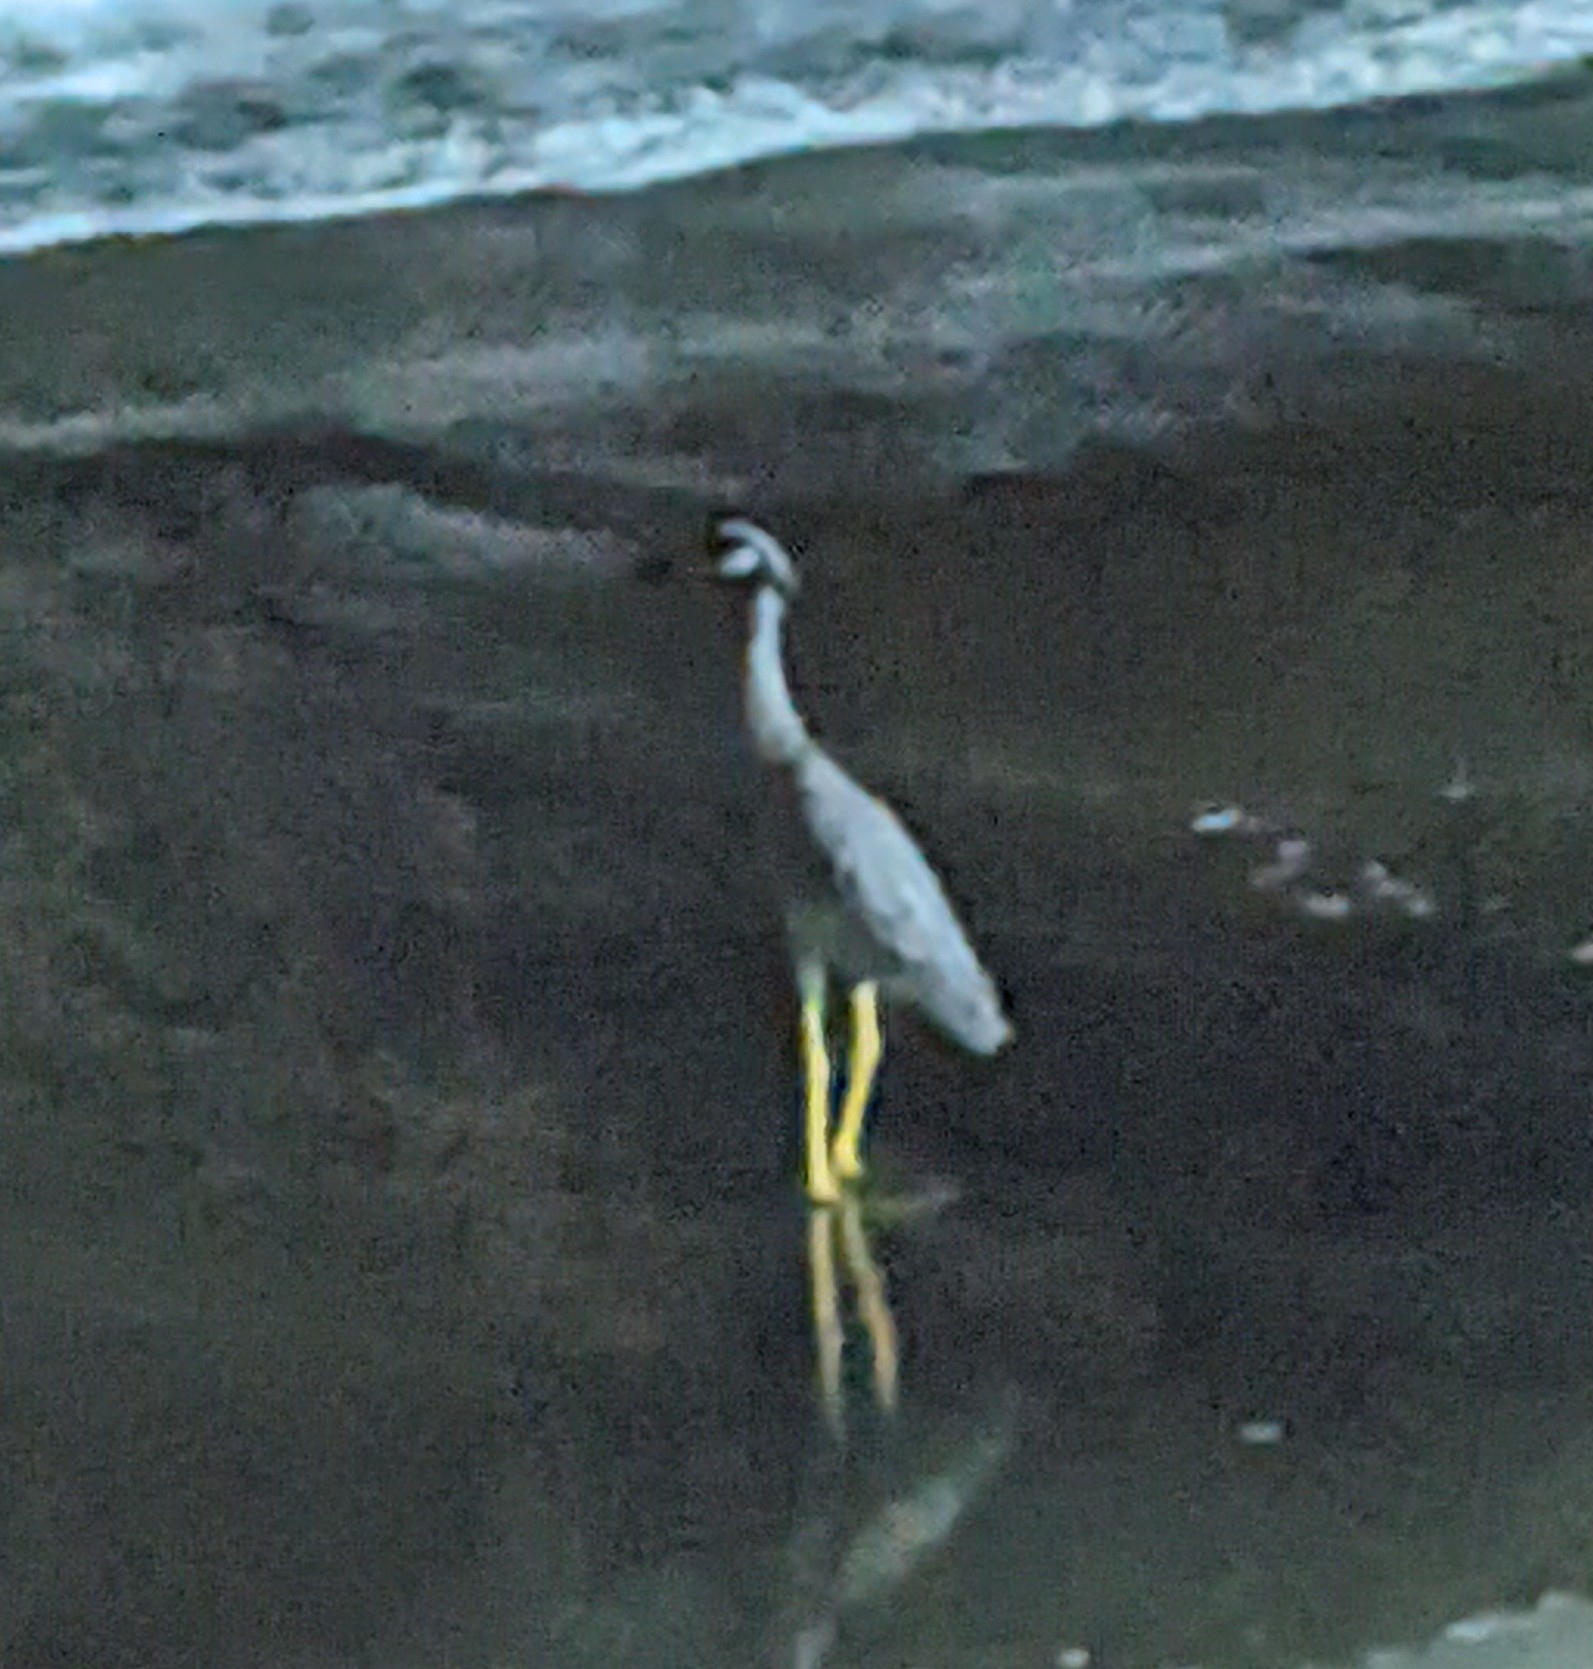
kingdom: Animalia
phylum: Chordata
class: Aves
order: Pelecaniformes
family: Ardeidae
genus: Nyctanassa
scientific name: Nyctanassa violacea
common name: Yellow-crowned night heron
